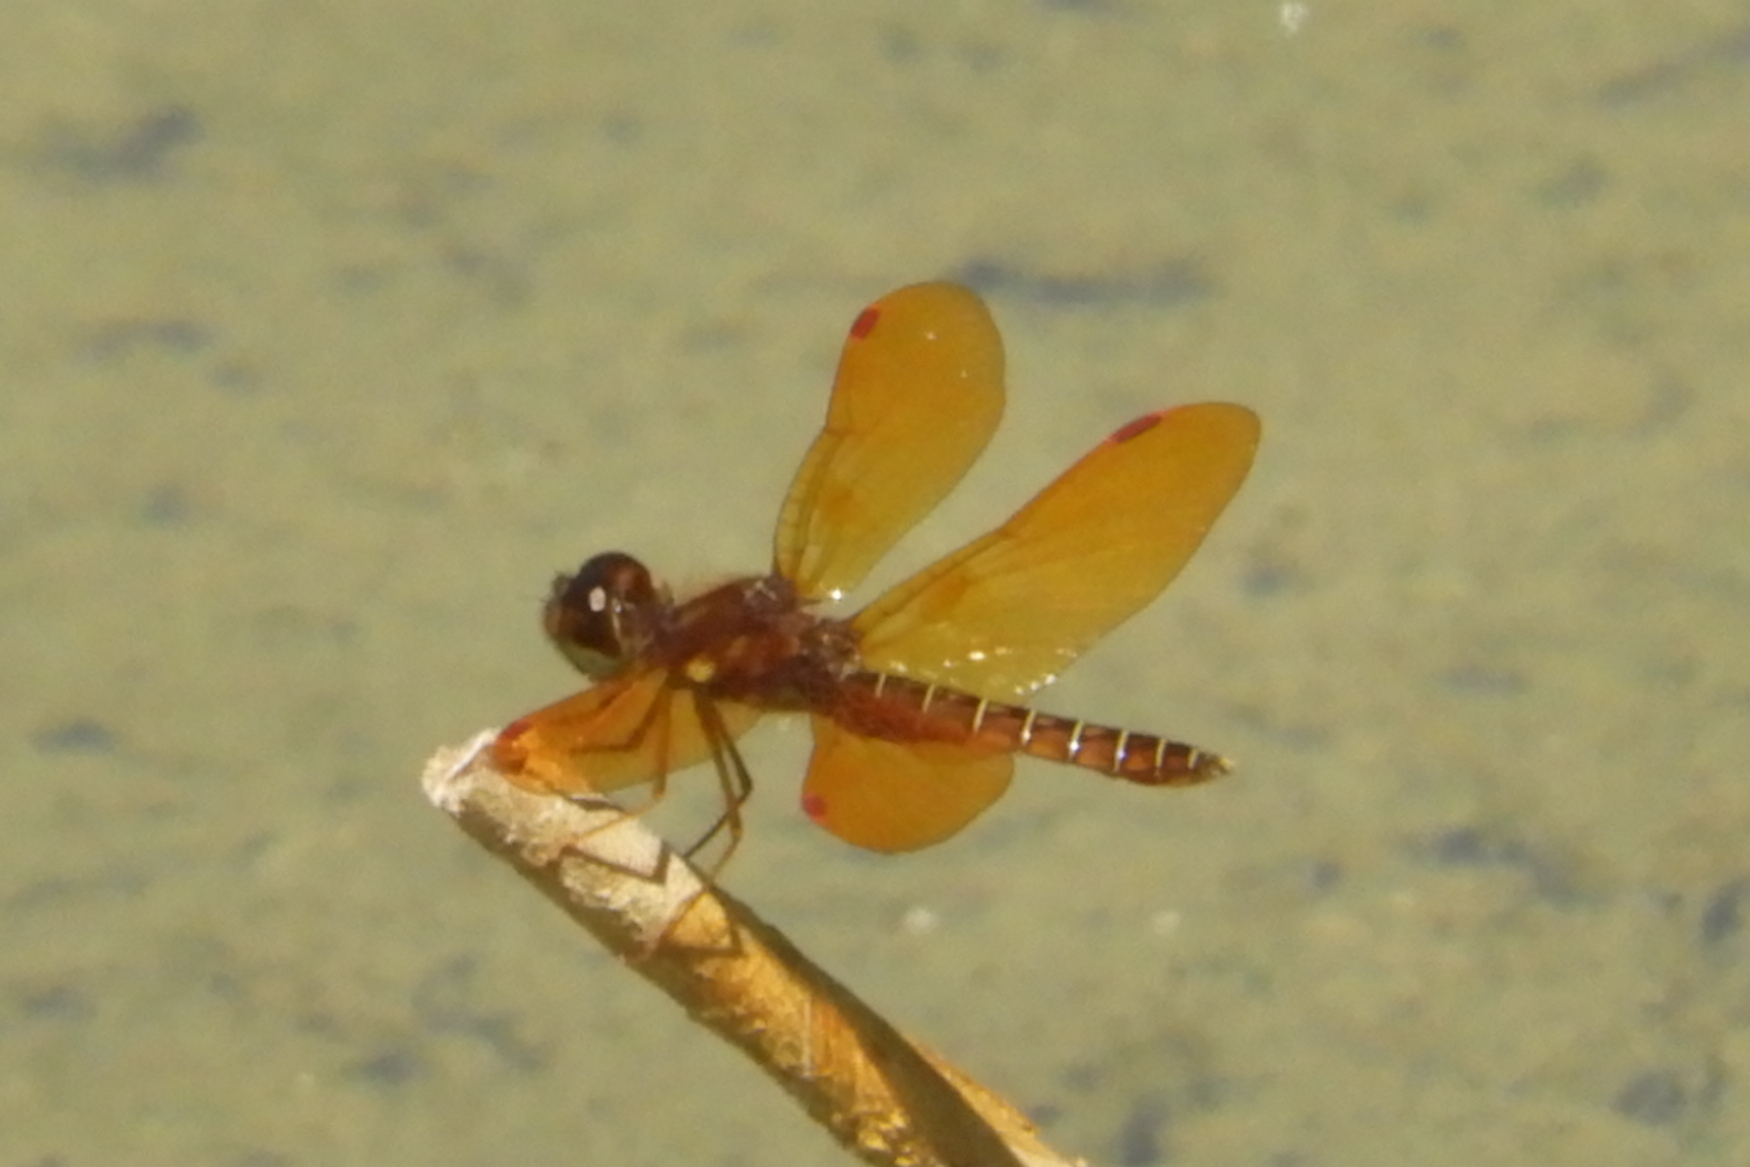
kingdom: Animalia
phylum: Arthropoda
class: Insecta
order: Odonata
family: Libellulidae
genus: Perithemis
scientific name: Perithemis tenera
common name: Eastern amberwing
